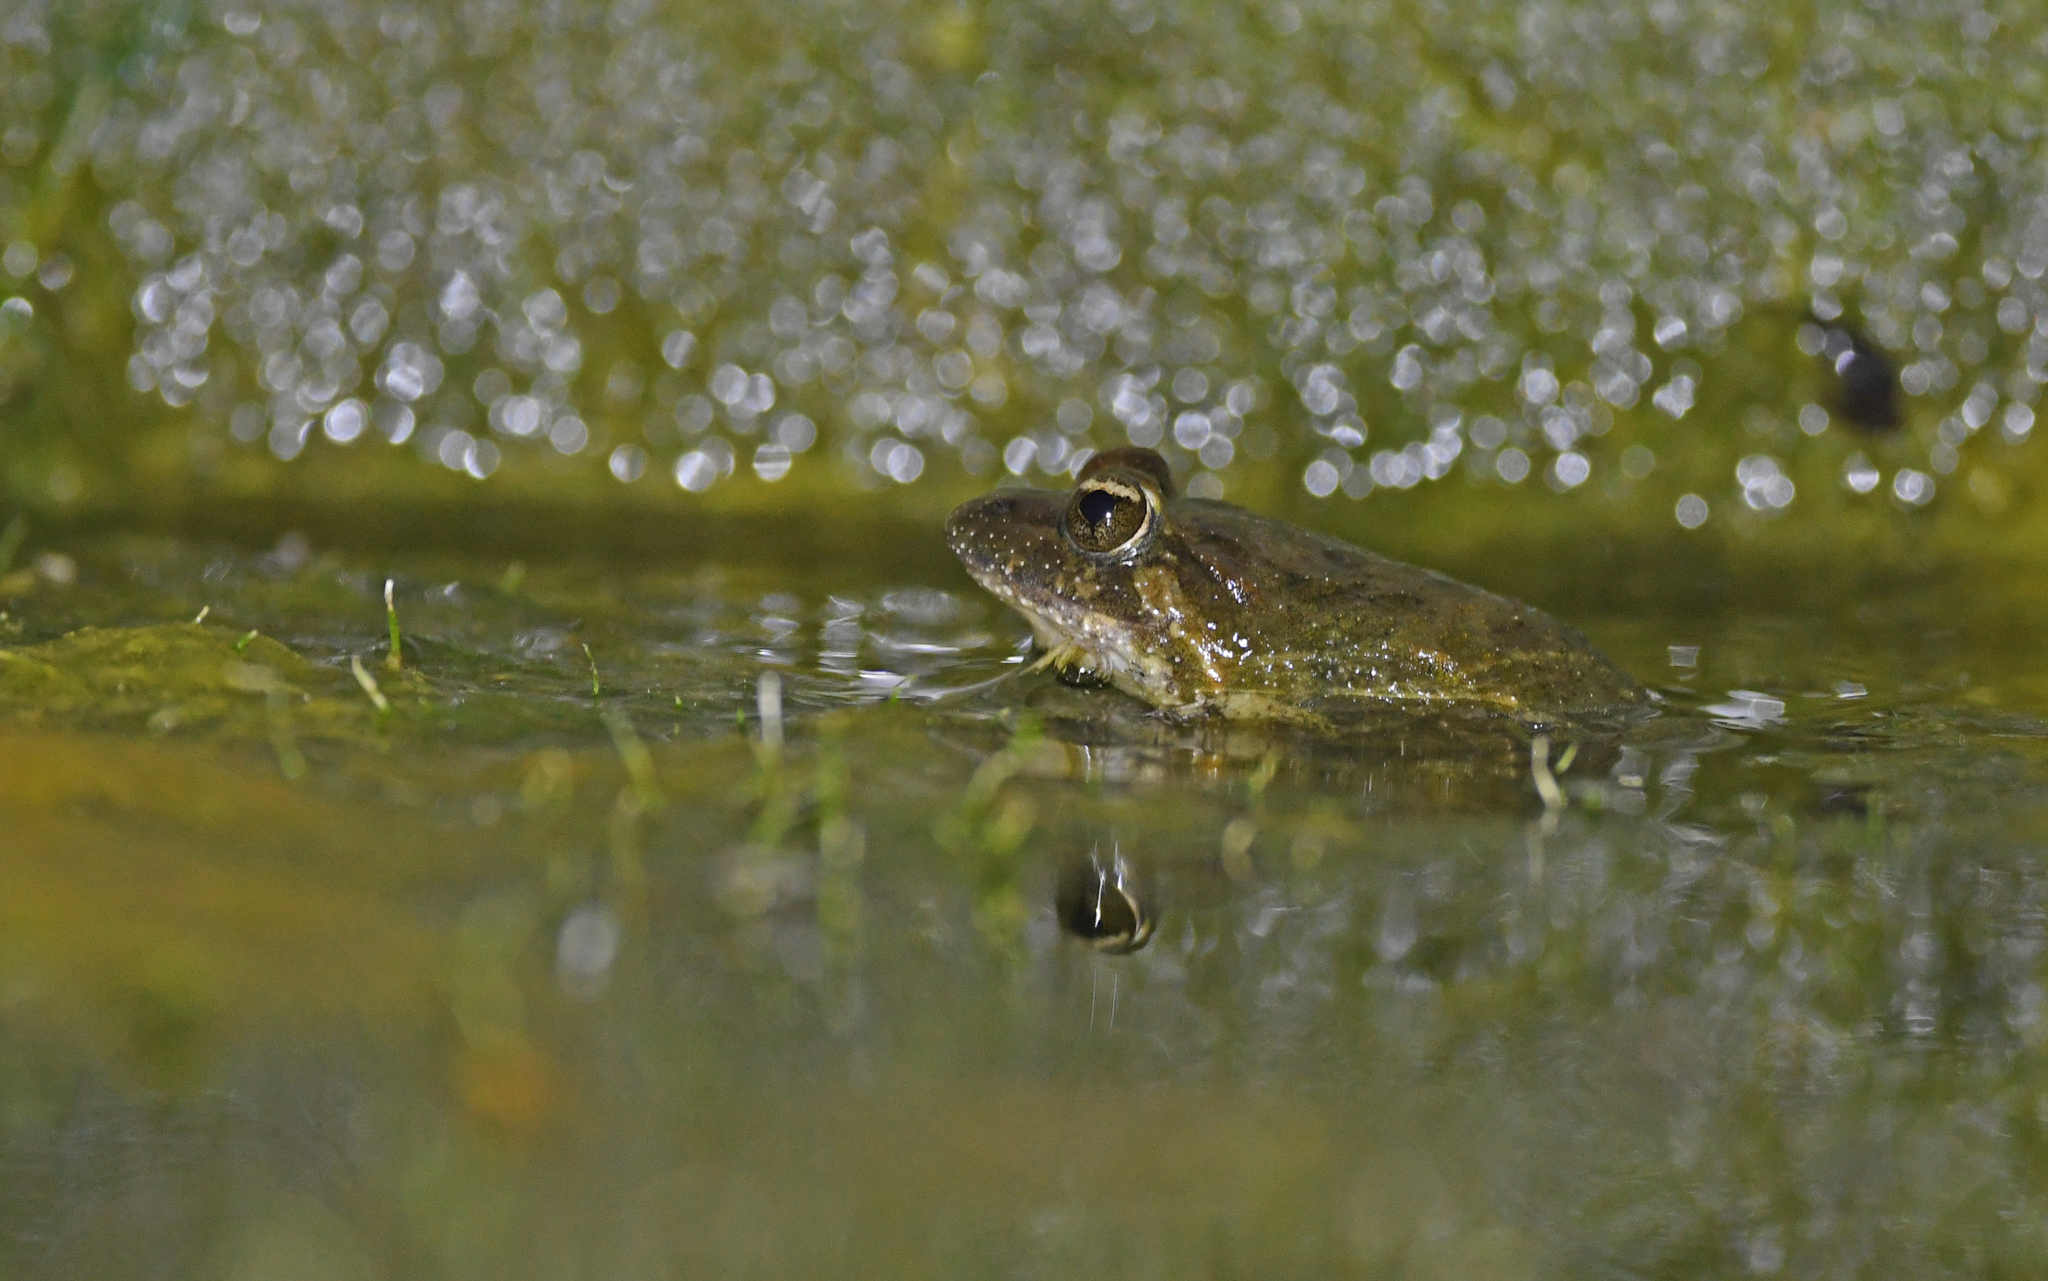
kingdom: Animalia
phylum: Chordata
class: Amphibia
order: Anura
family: Alytidae
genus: Discoglossus
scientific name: Discoglossus sardus
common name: Sardinia painted frog
